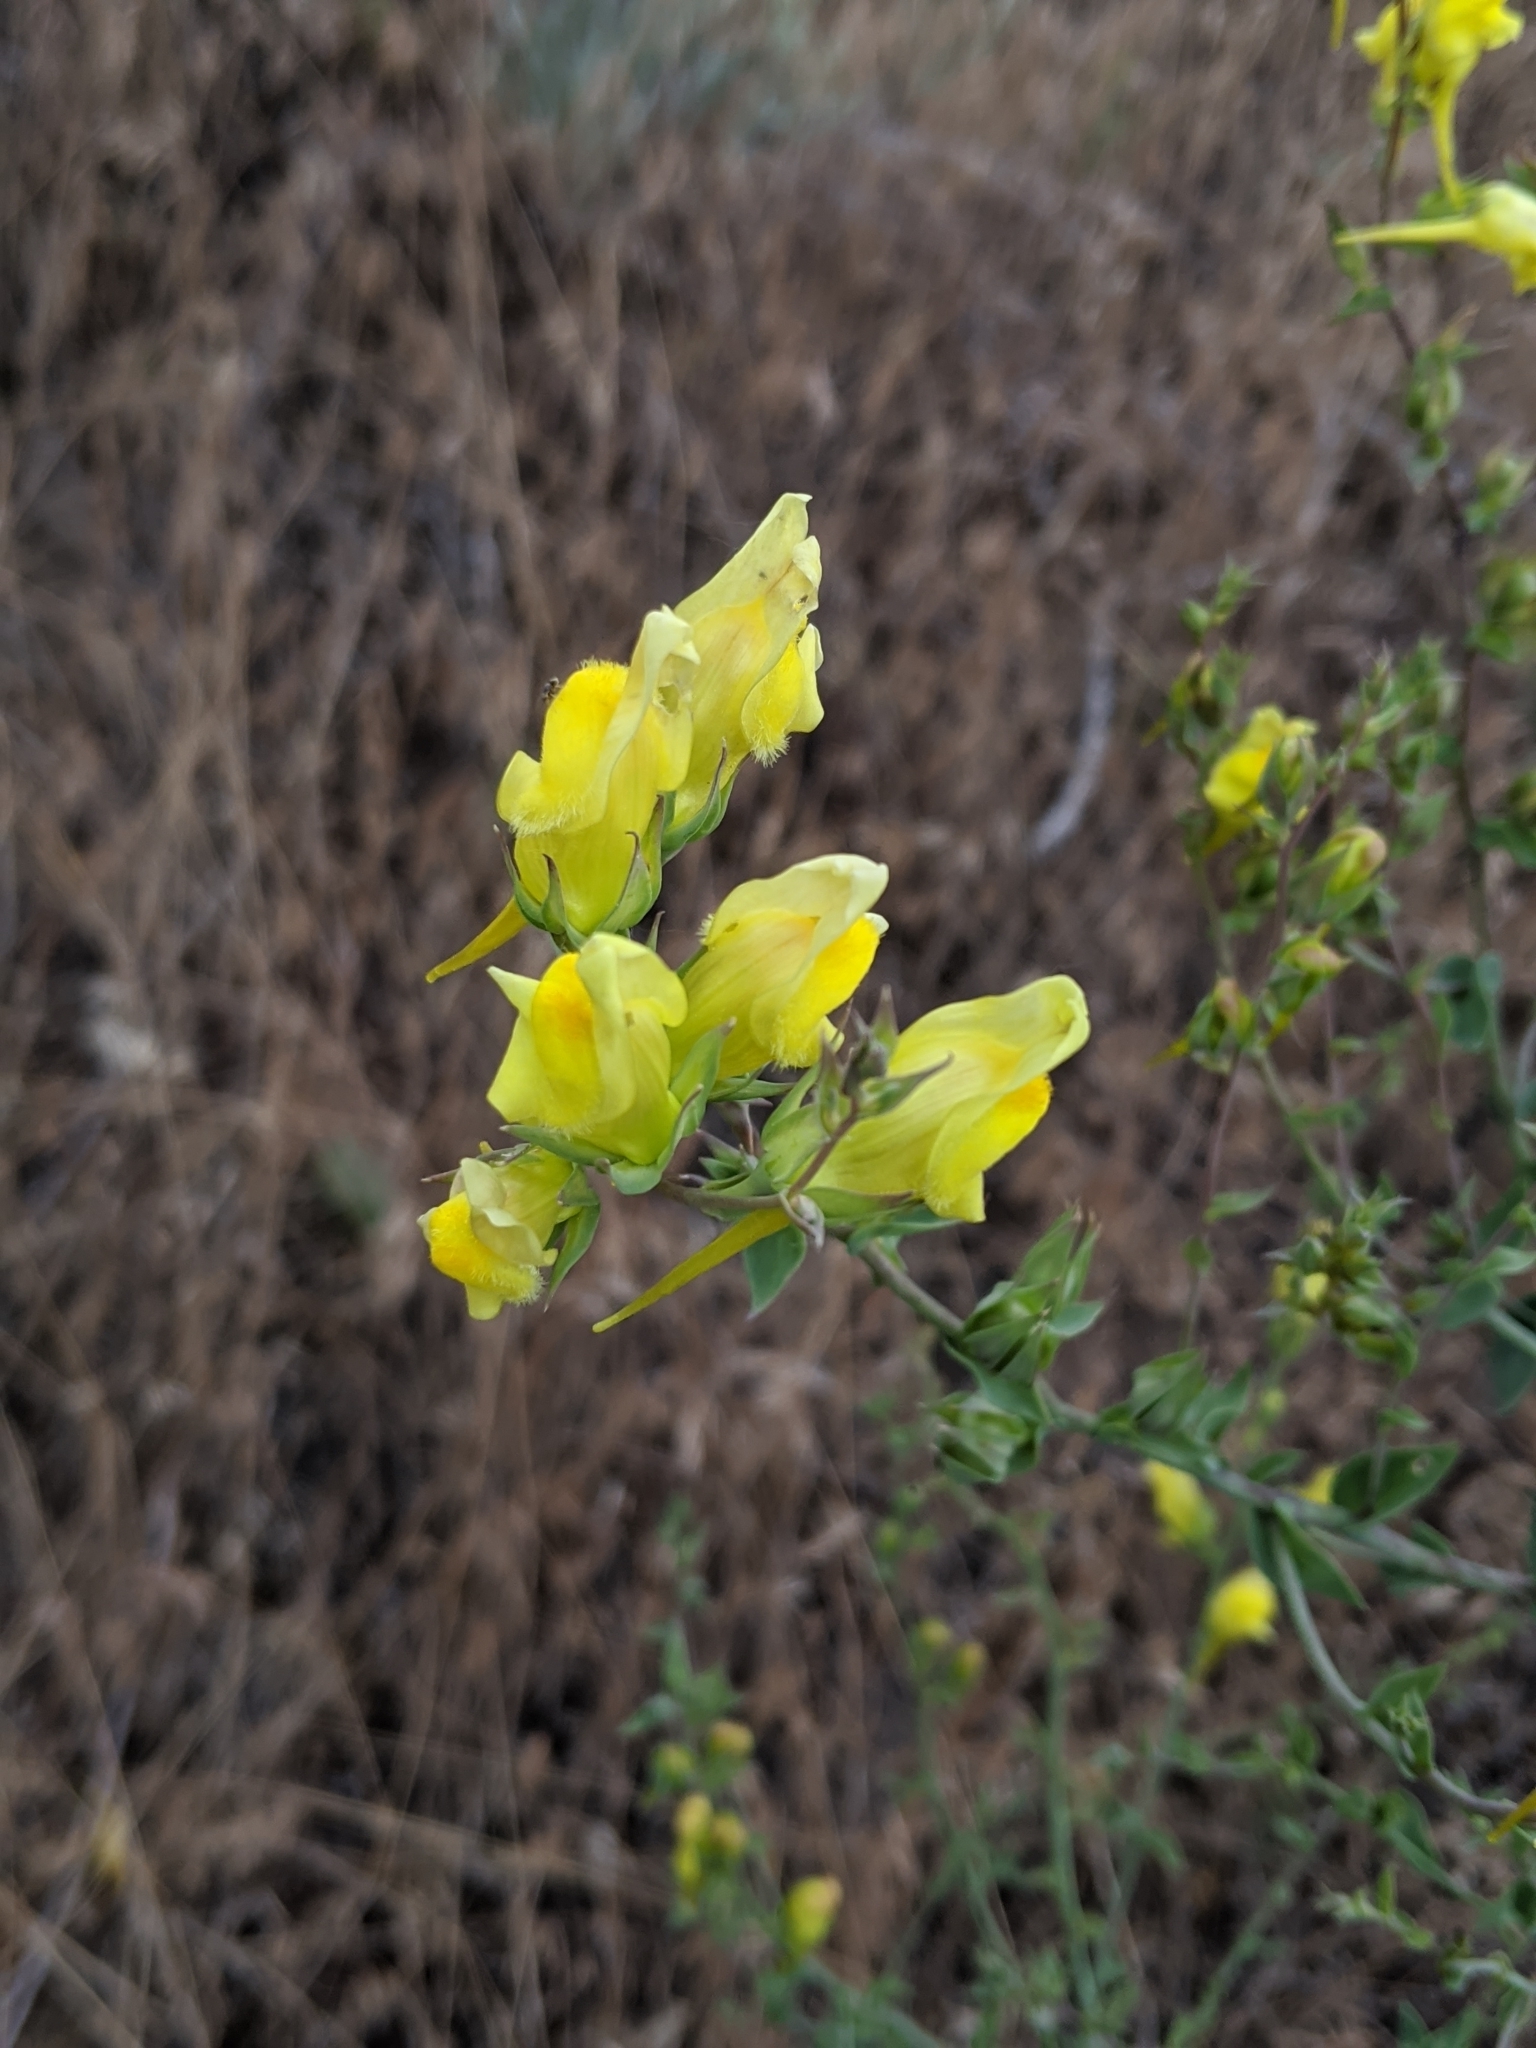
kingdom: Plantae
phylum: Tracheophyta
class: Magnoliopsida
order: Lamiales
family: Plantaginaceae
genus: Linaria
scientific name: Linaria dalmatica
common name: Dalmatian toadflax
